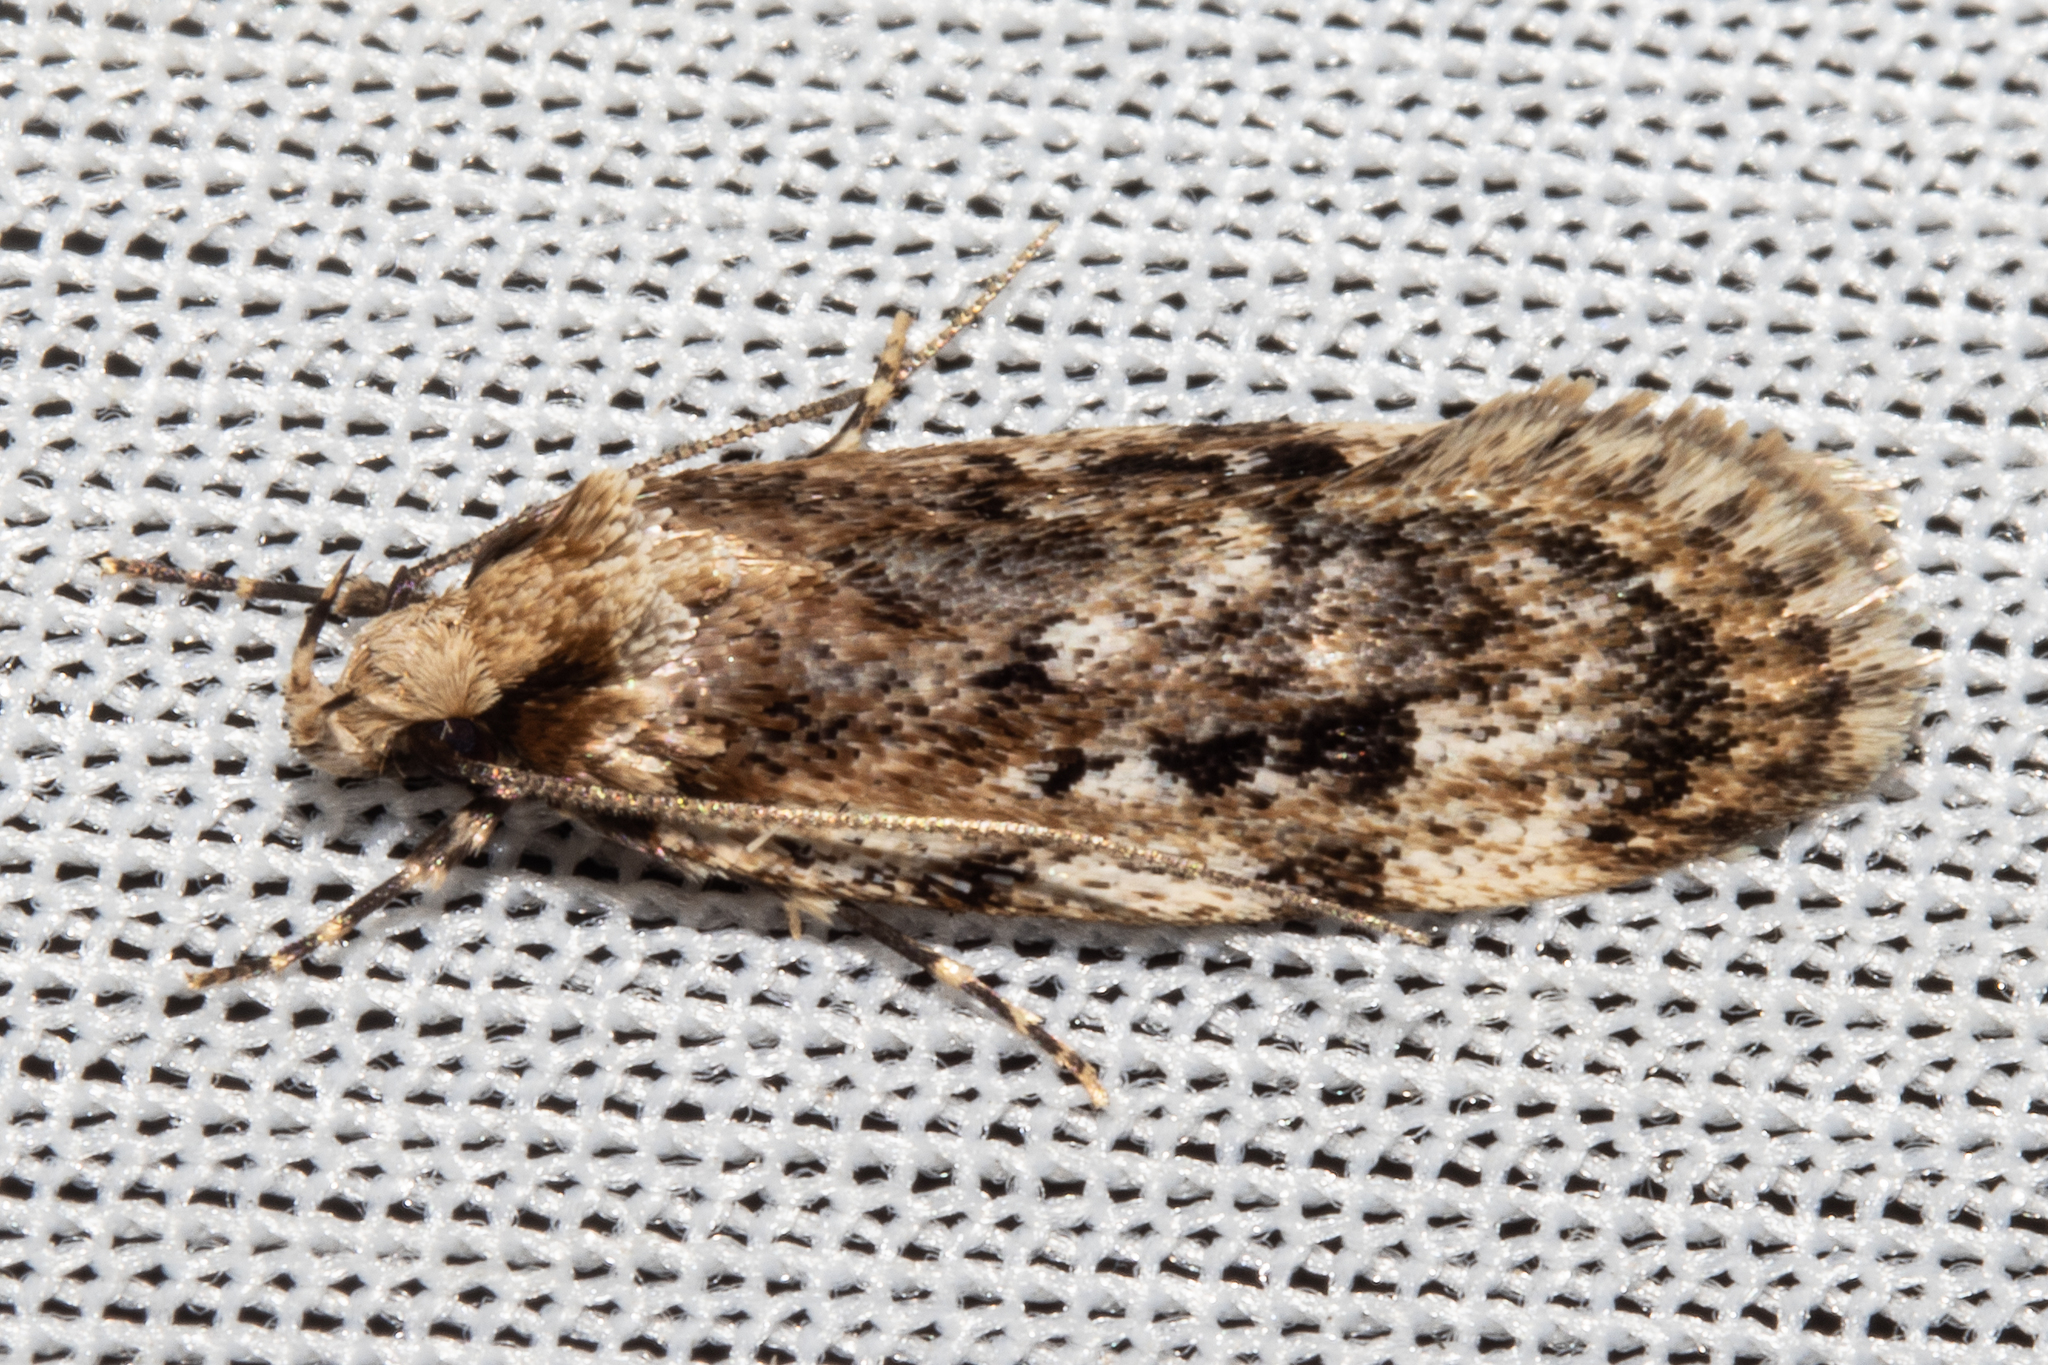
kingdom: Animalia
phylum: Arthropoda
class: Insecta
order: Lepidoptera
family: Oecophoridae
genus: Barea
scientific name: Barea exarcha
